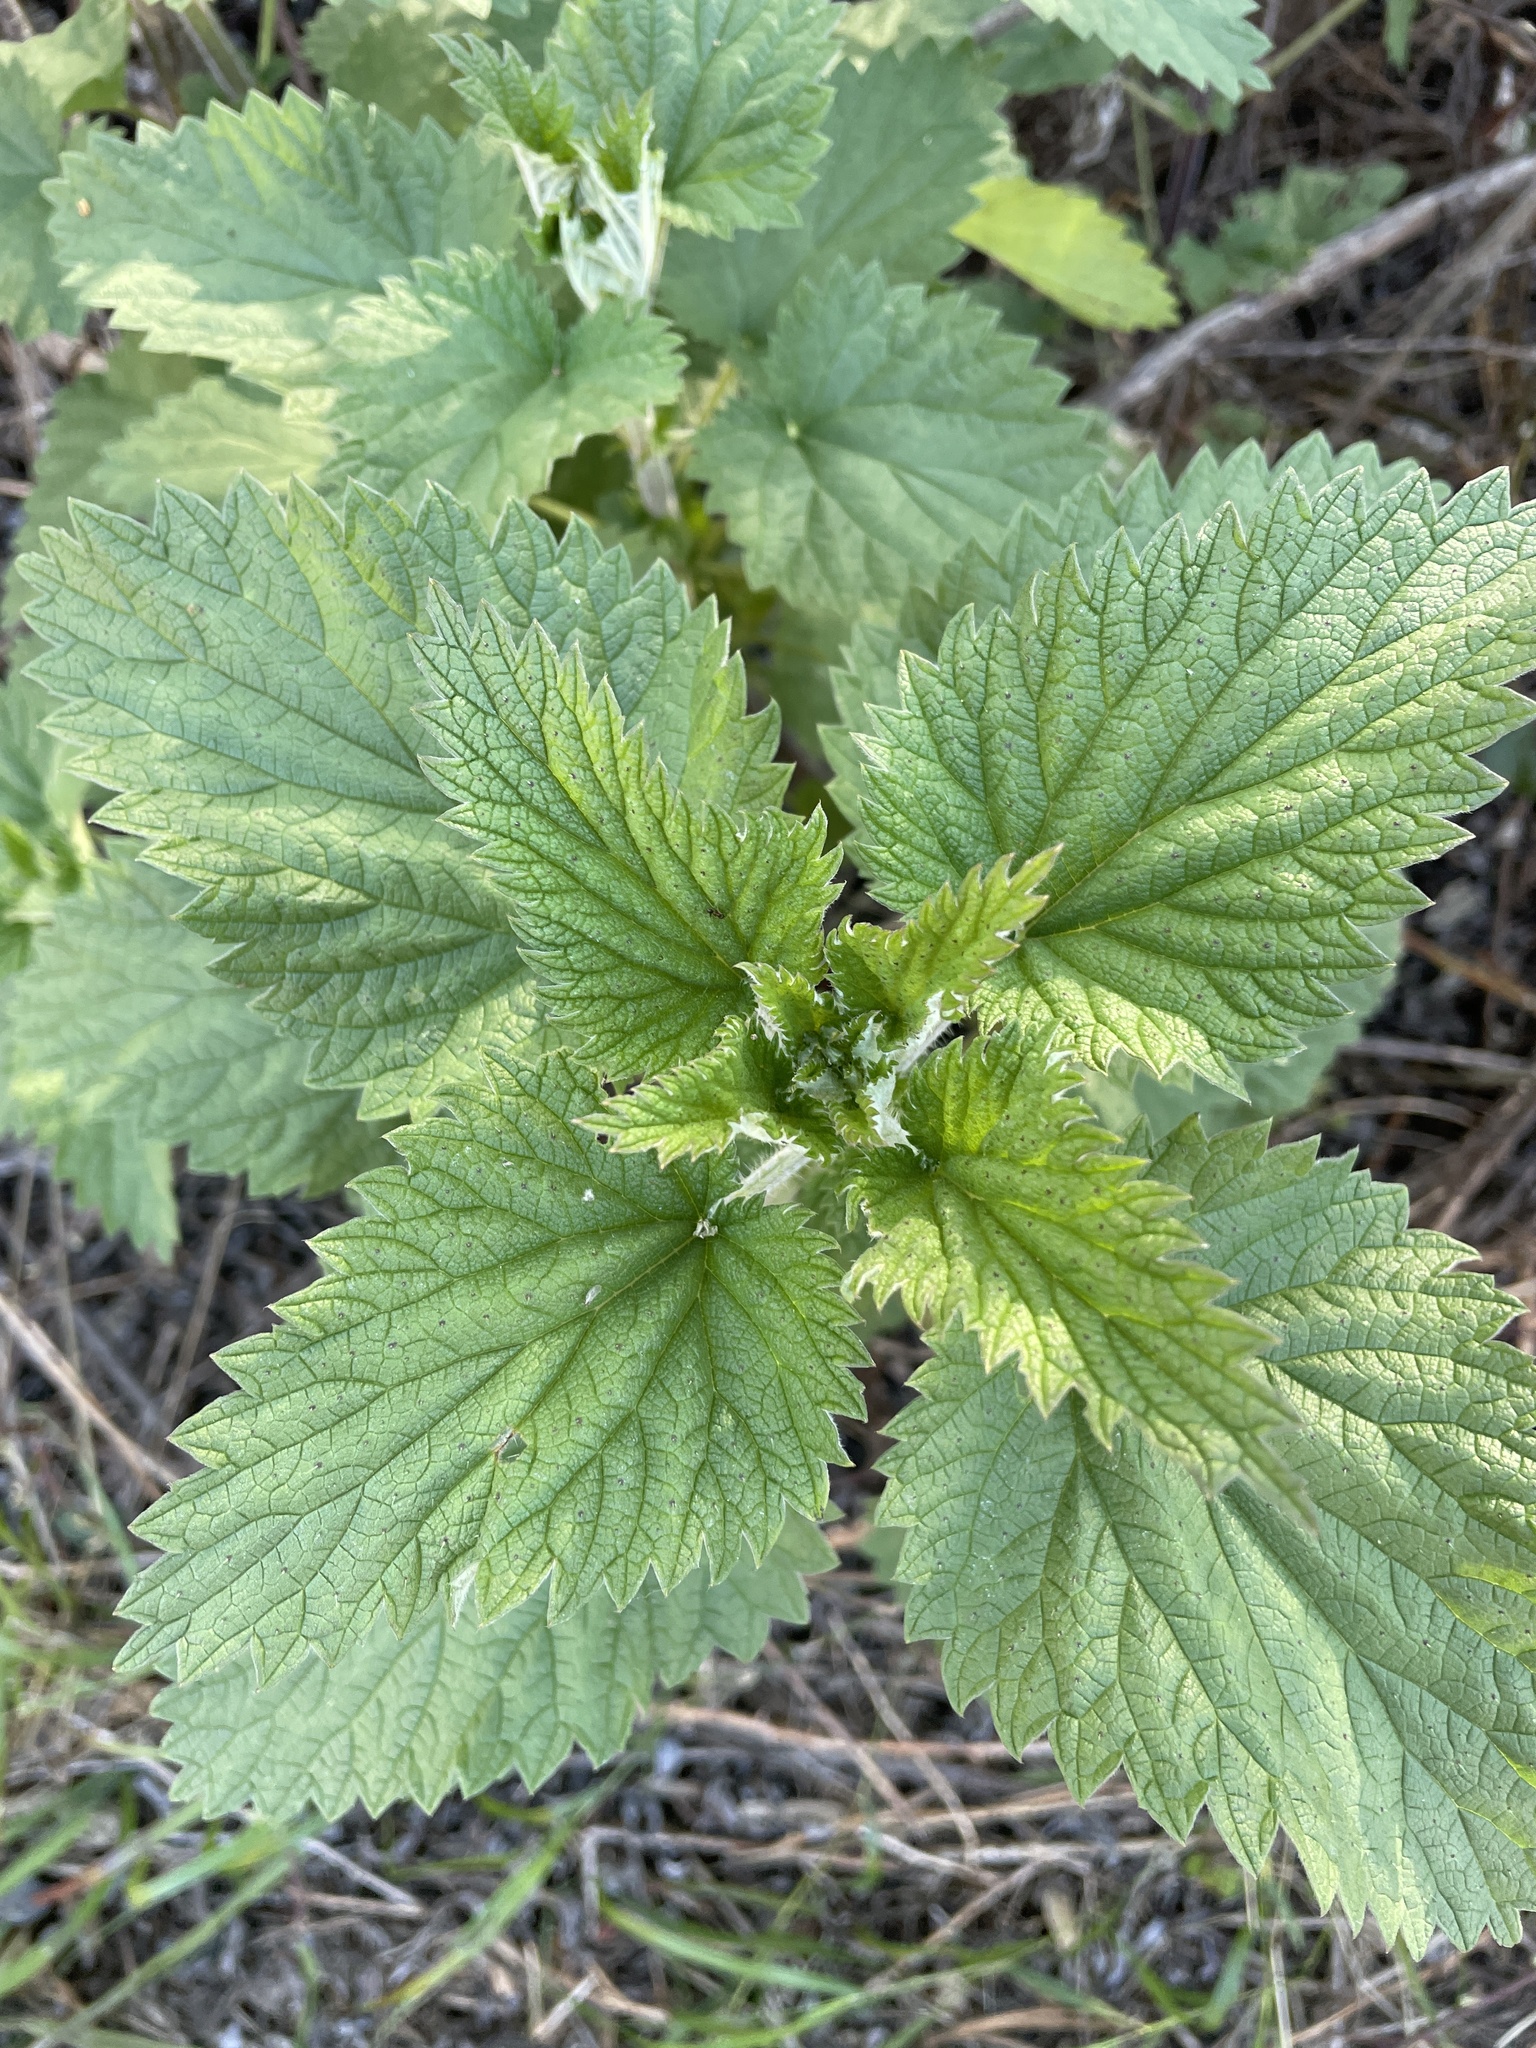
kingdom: Plantae
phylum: Tracheophyta
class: Magnoliopsida
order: Rosales
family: Urticaceae
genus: Urtica
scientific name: Urtica dioica
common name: Common nettle
